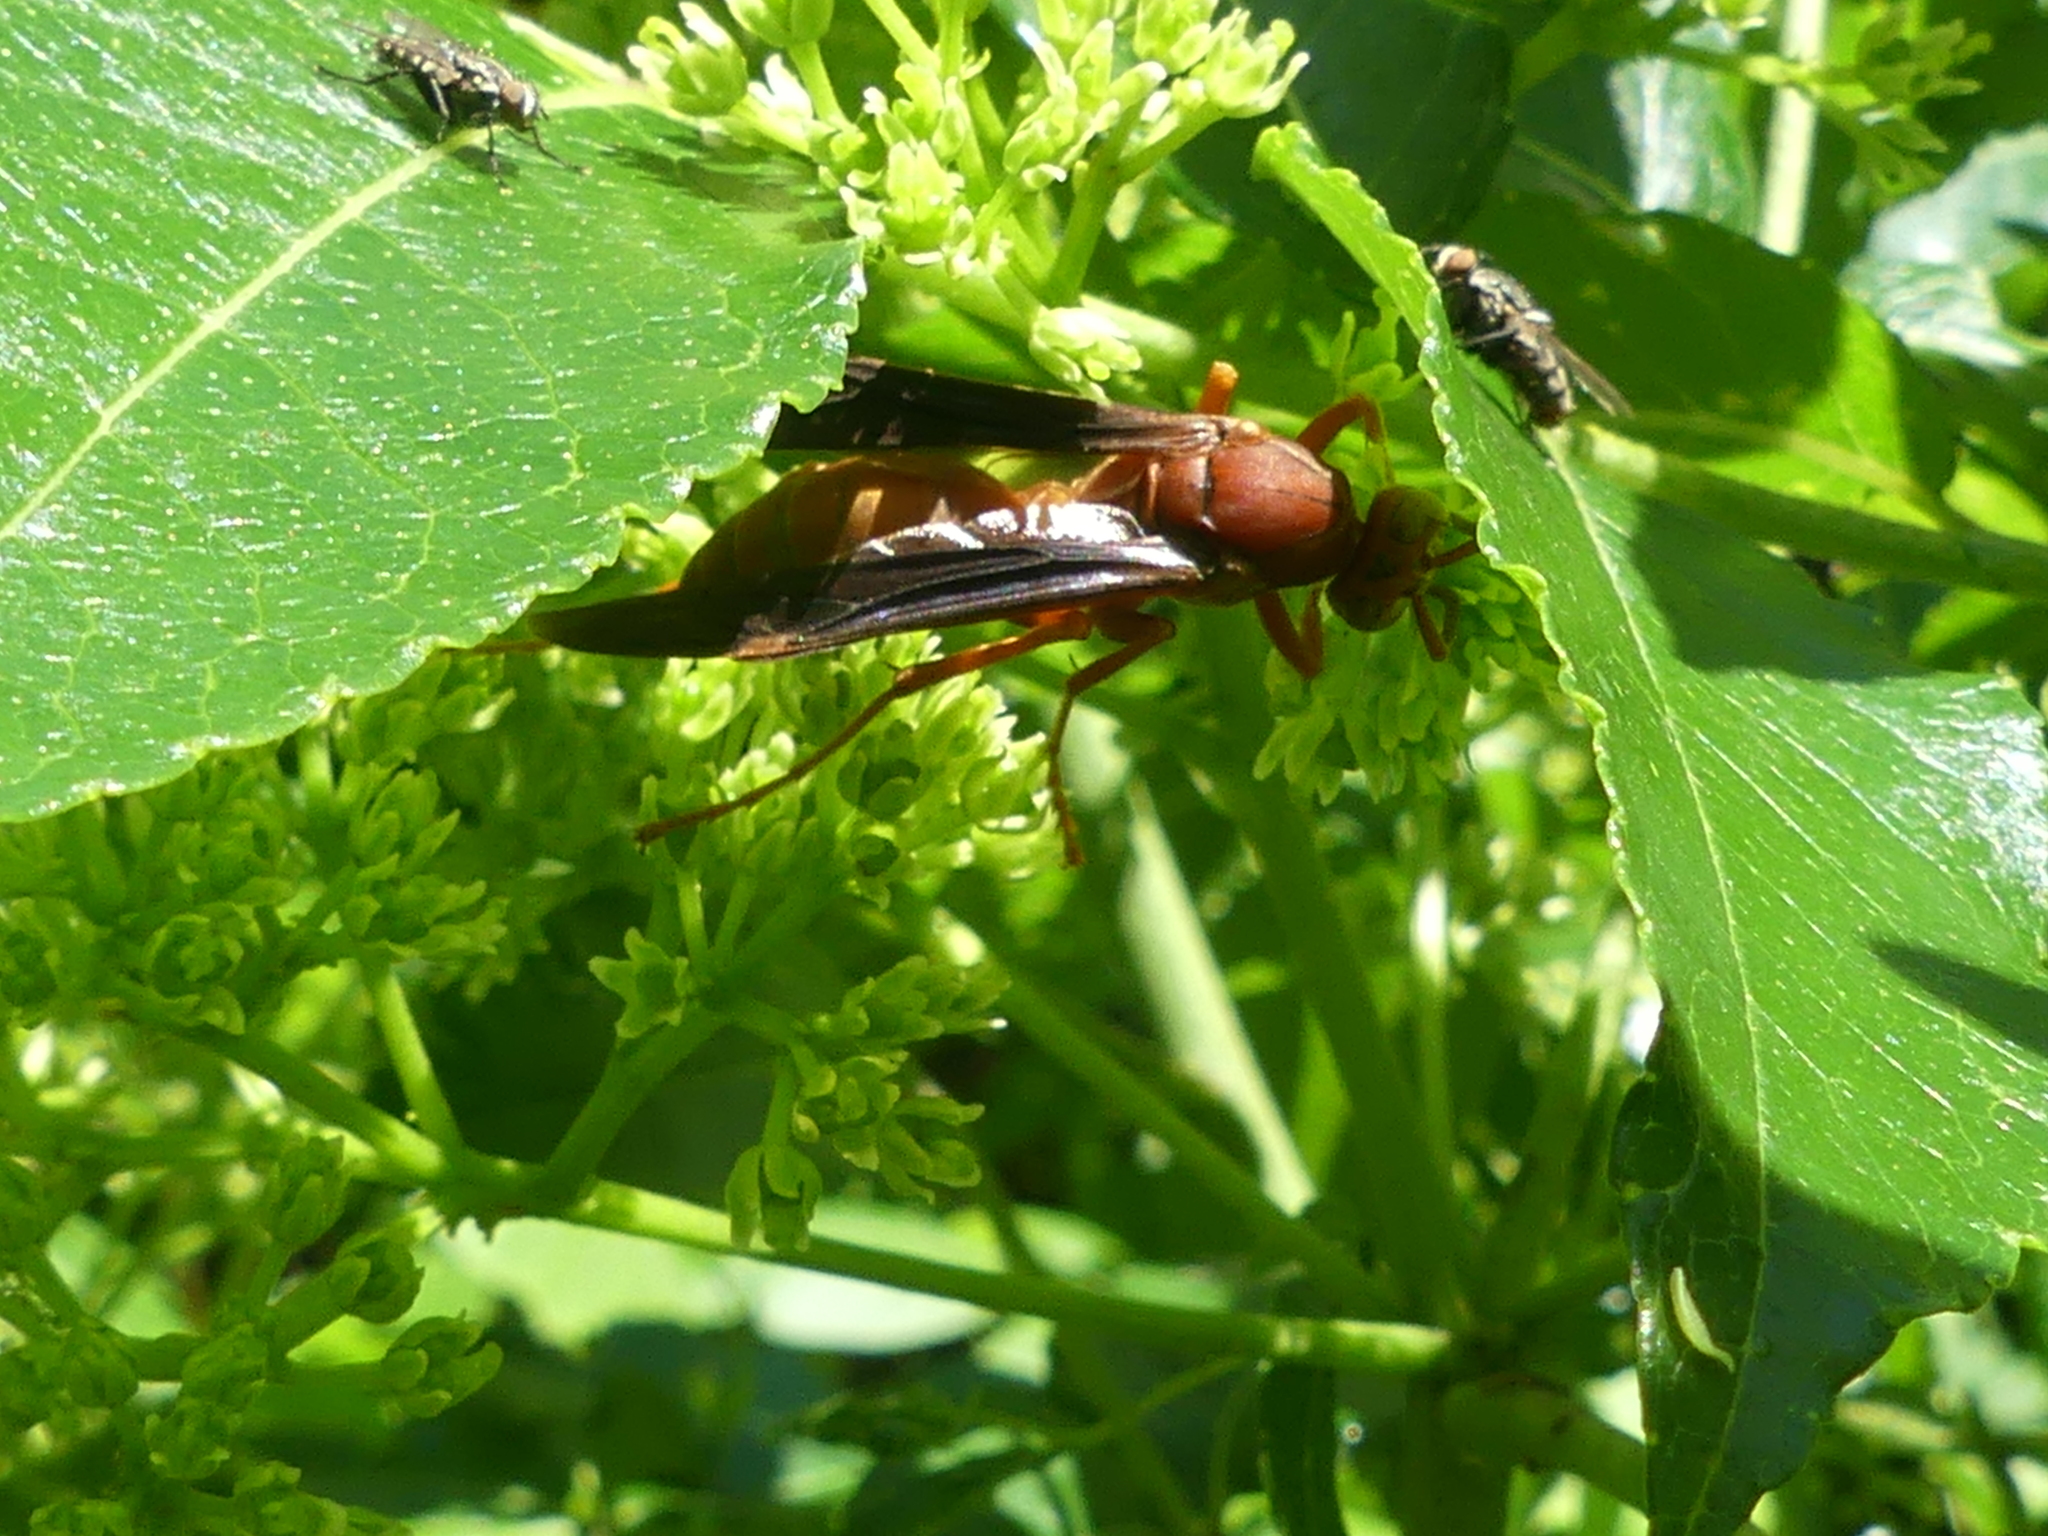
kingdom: Animalia
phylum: Arthropoda
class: Insecta
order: Hymenoptera
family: Vespidae
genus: Fuscopolistes
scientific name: Fuscopolistes
